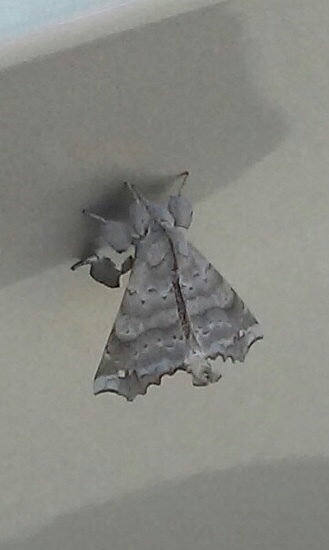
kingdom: Animalia
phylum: Arthropoda
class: Insecta
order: Lepidoptera
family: Apatelodidae
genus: Olceclostera
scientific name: Olceclostera angelica
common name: Angel moth
